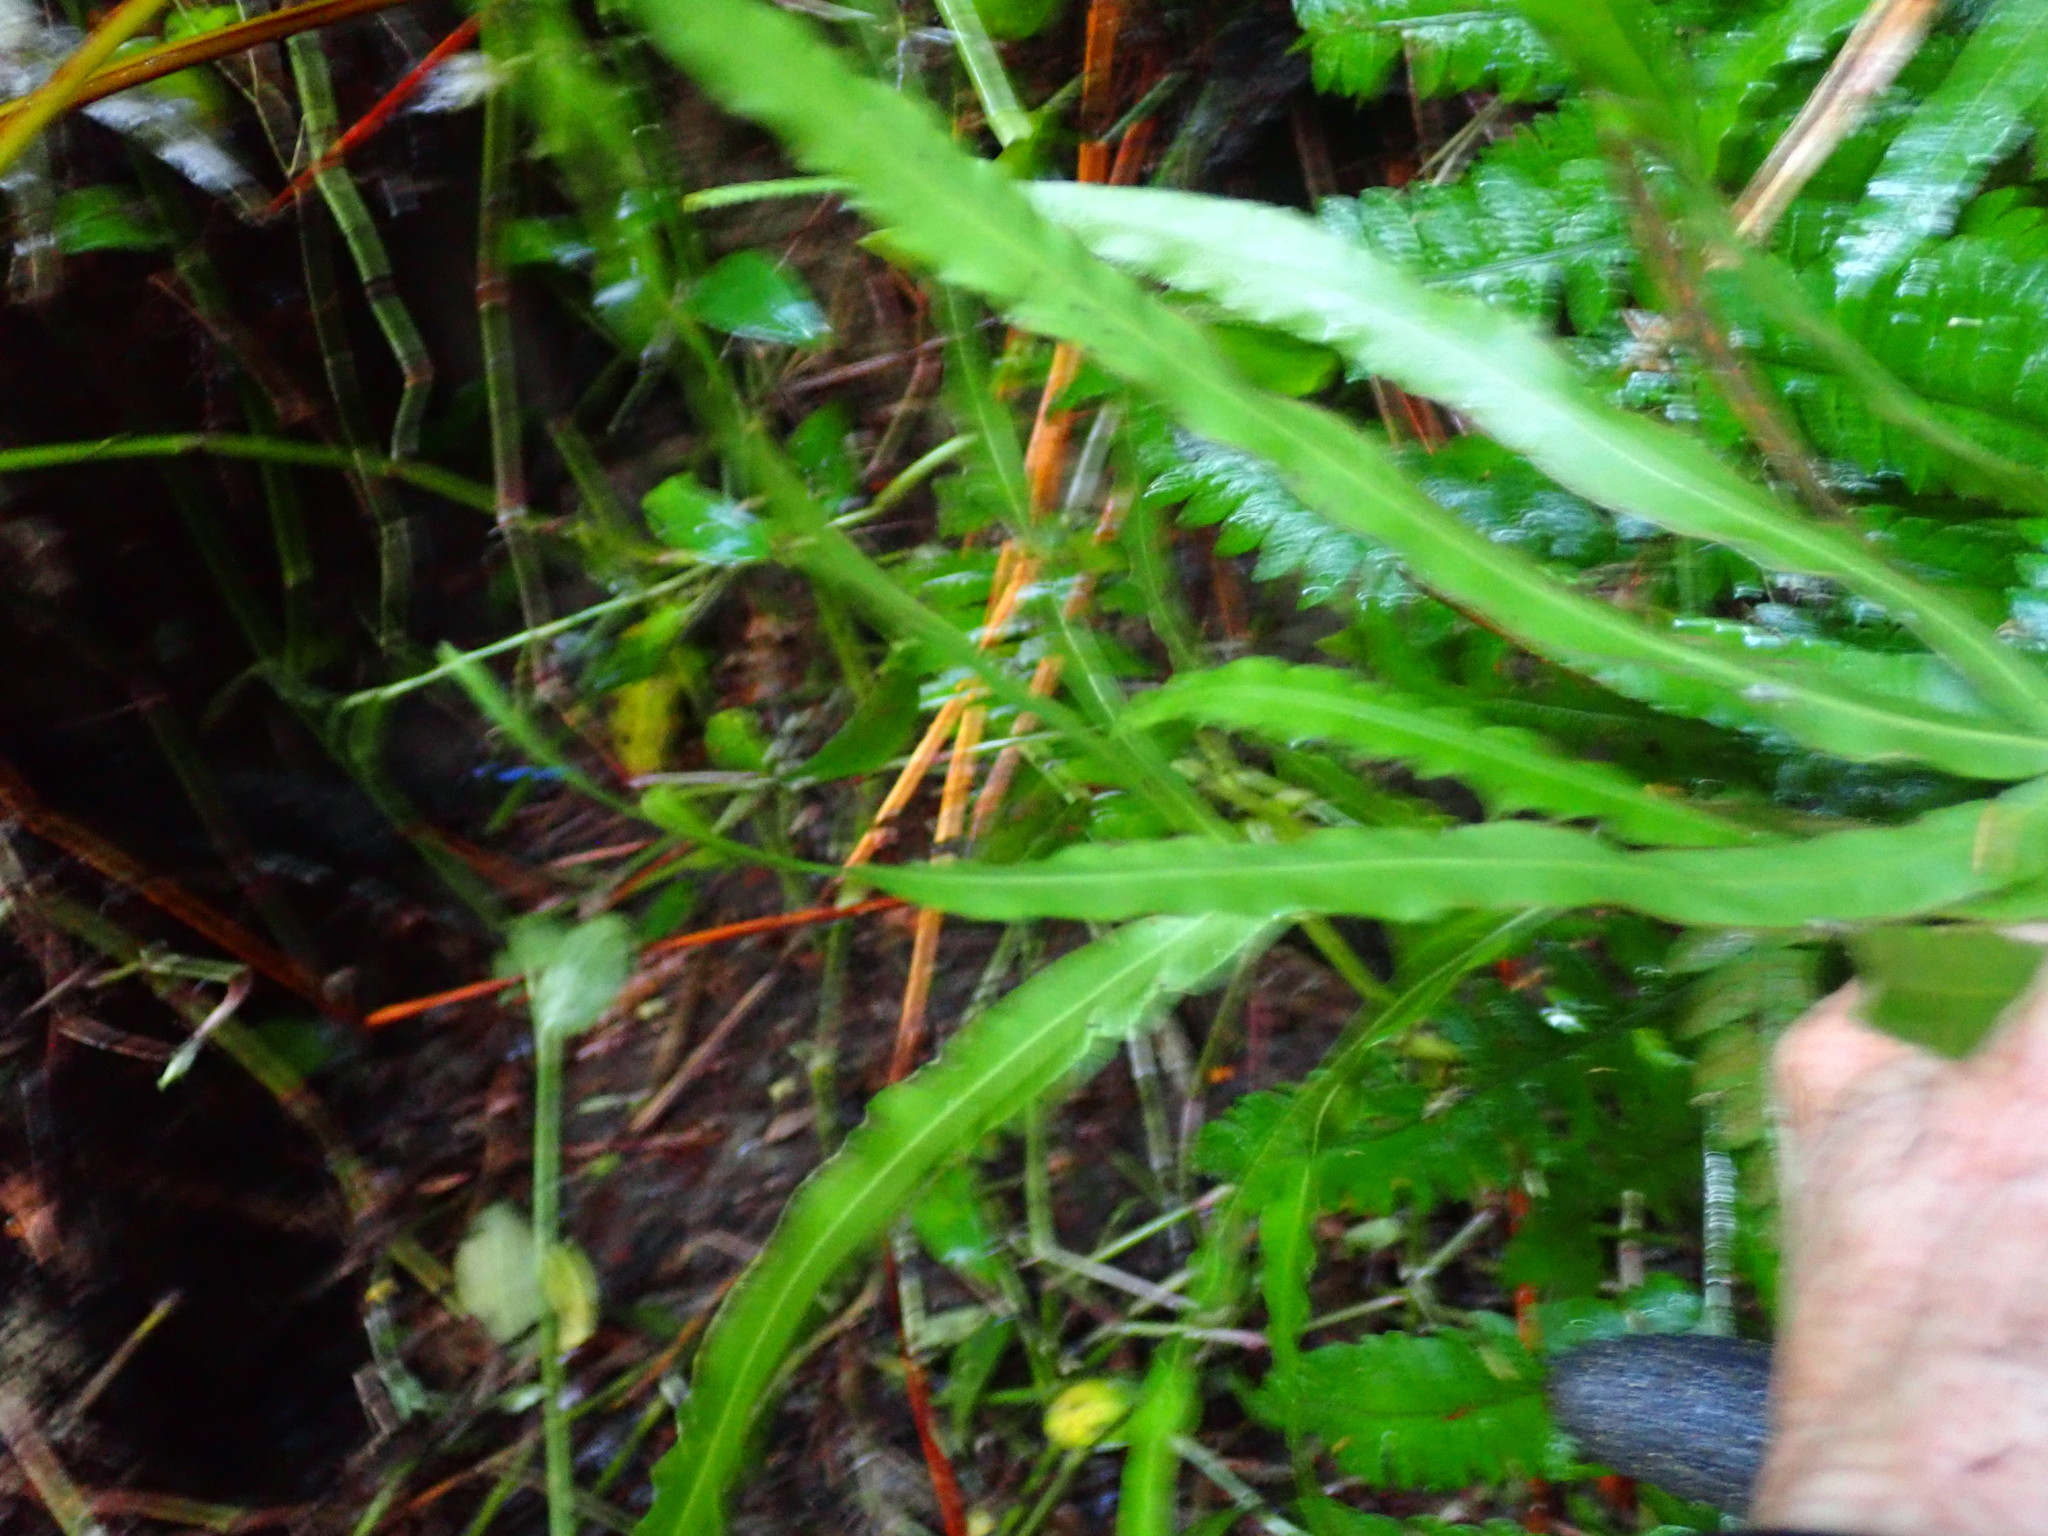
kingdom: Plantae
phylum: Tracheophyta
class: Polypodiopsida
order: Polypodiales
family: Pteridaceae
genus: Pteris
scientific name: Pteris cretica
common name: Ribbon fern
